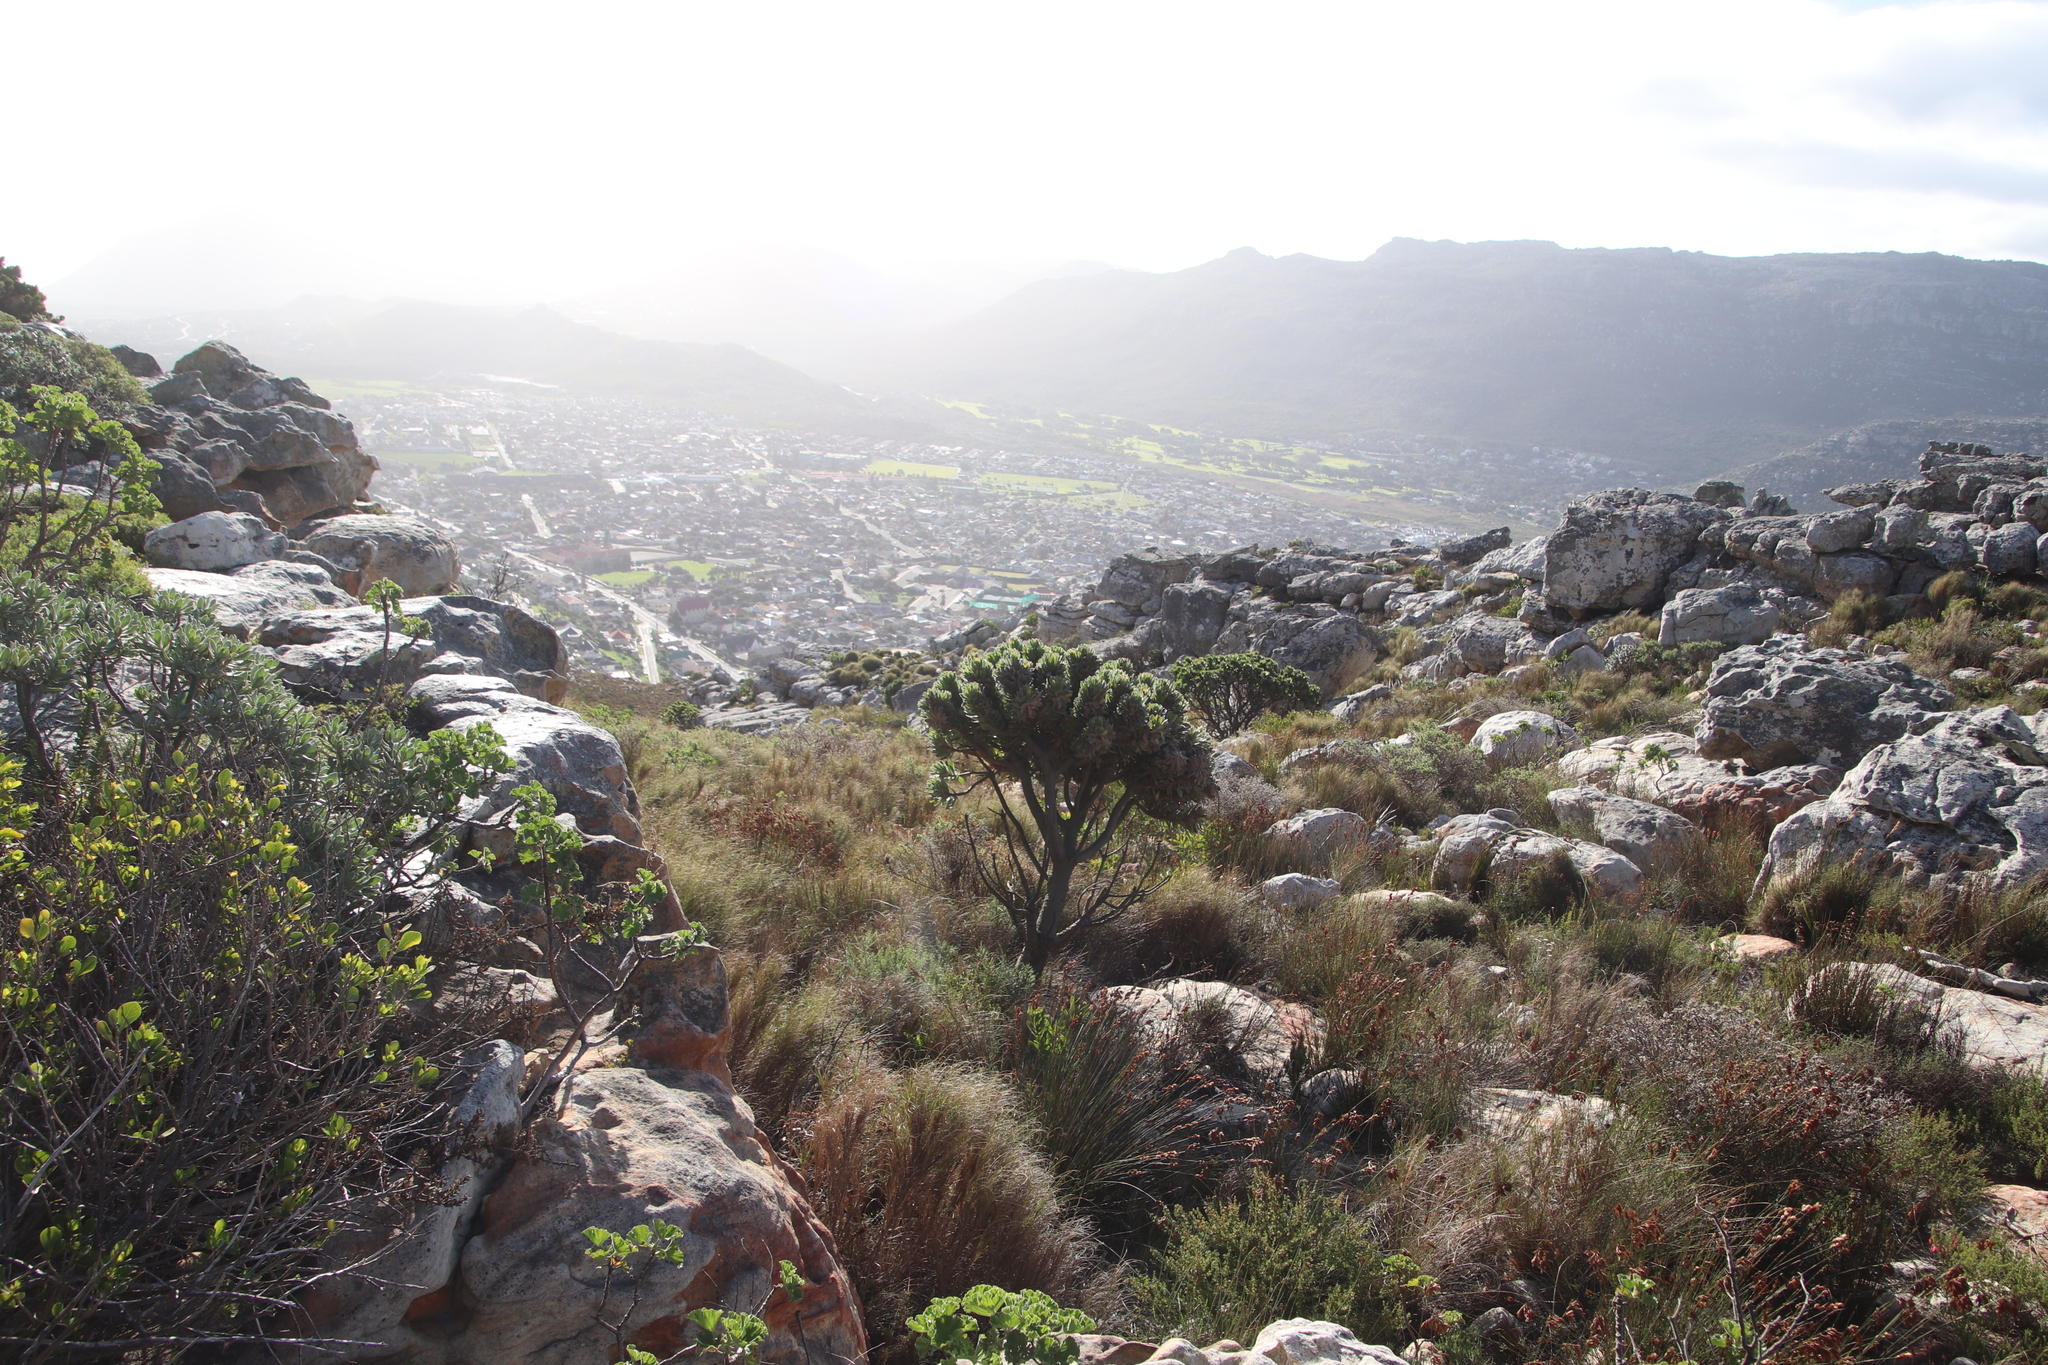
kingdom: Plantae
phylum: Tracheophyta
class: Magnoliopsida
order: Proteales
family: Proteaceae
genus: Leucospermum
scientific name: Leucospermum conocarpodendron
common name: Tree pincushion
